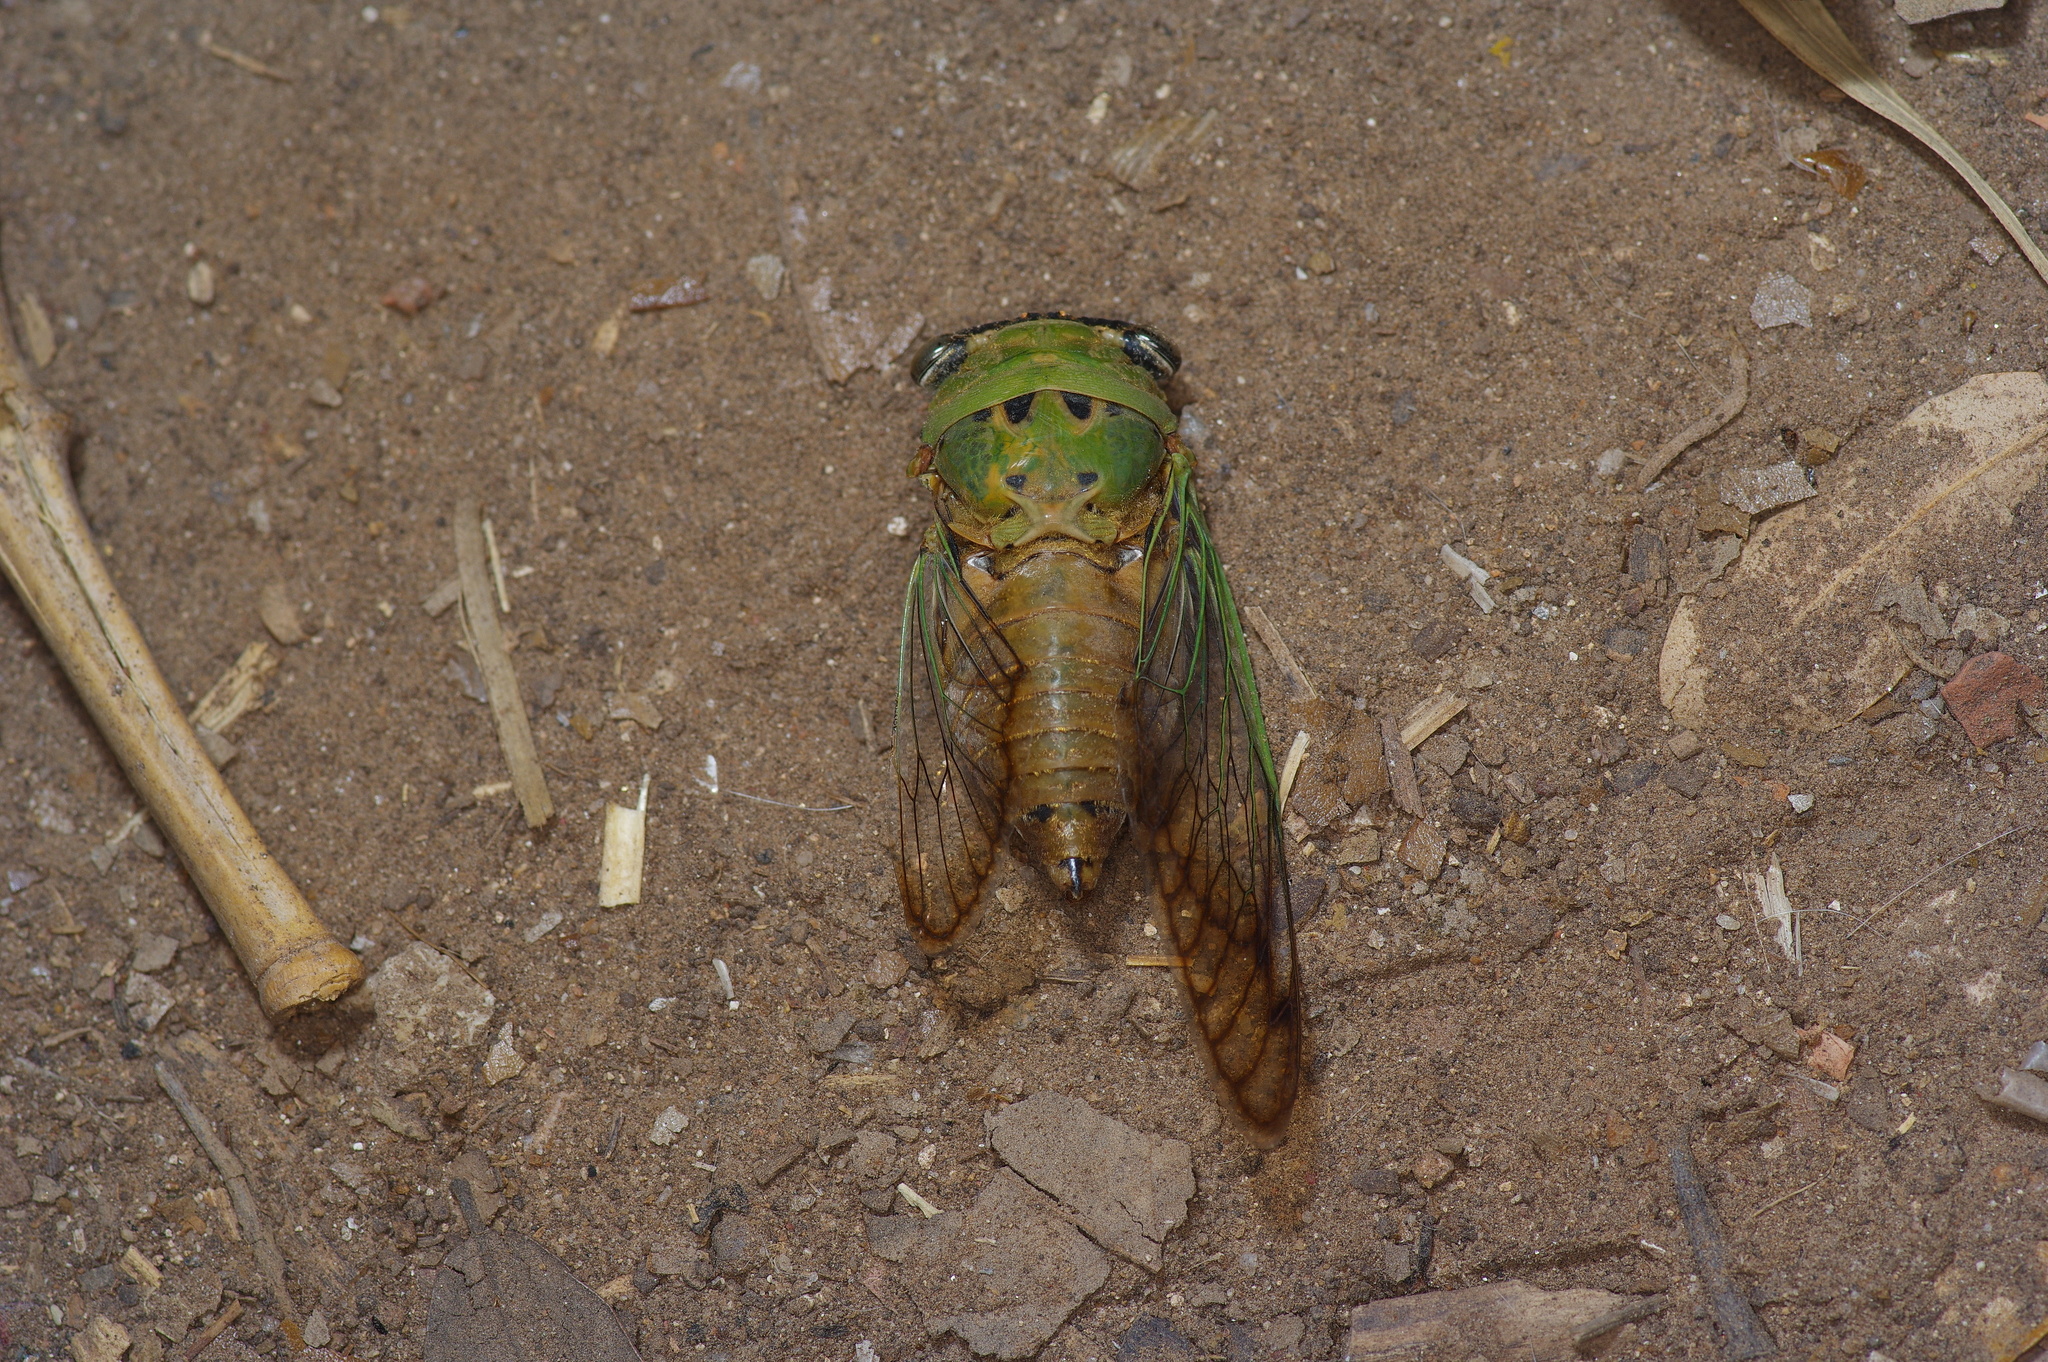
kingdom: Animalia
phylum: Arthropoda
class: Insecta
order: Hemiptera
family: Cicadidae
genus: Neotibicen
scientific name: Neotibicen superbus
